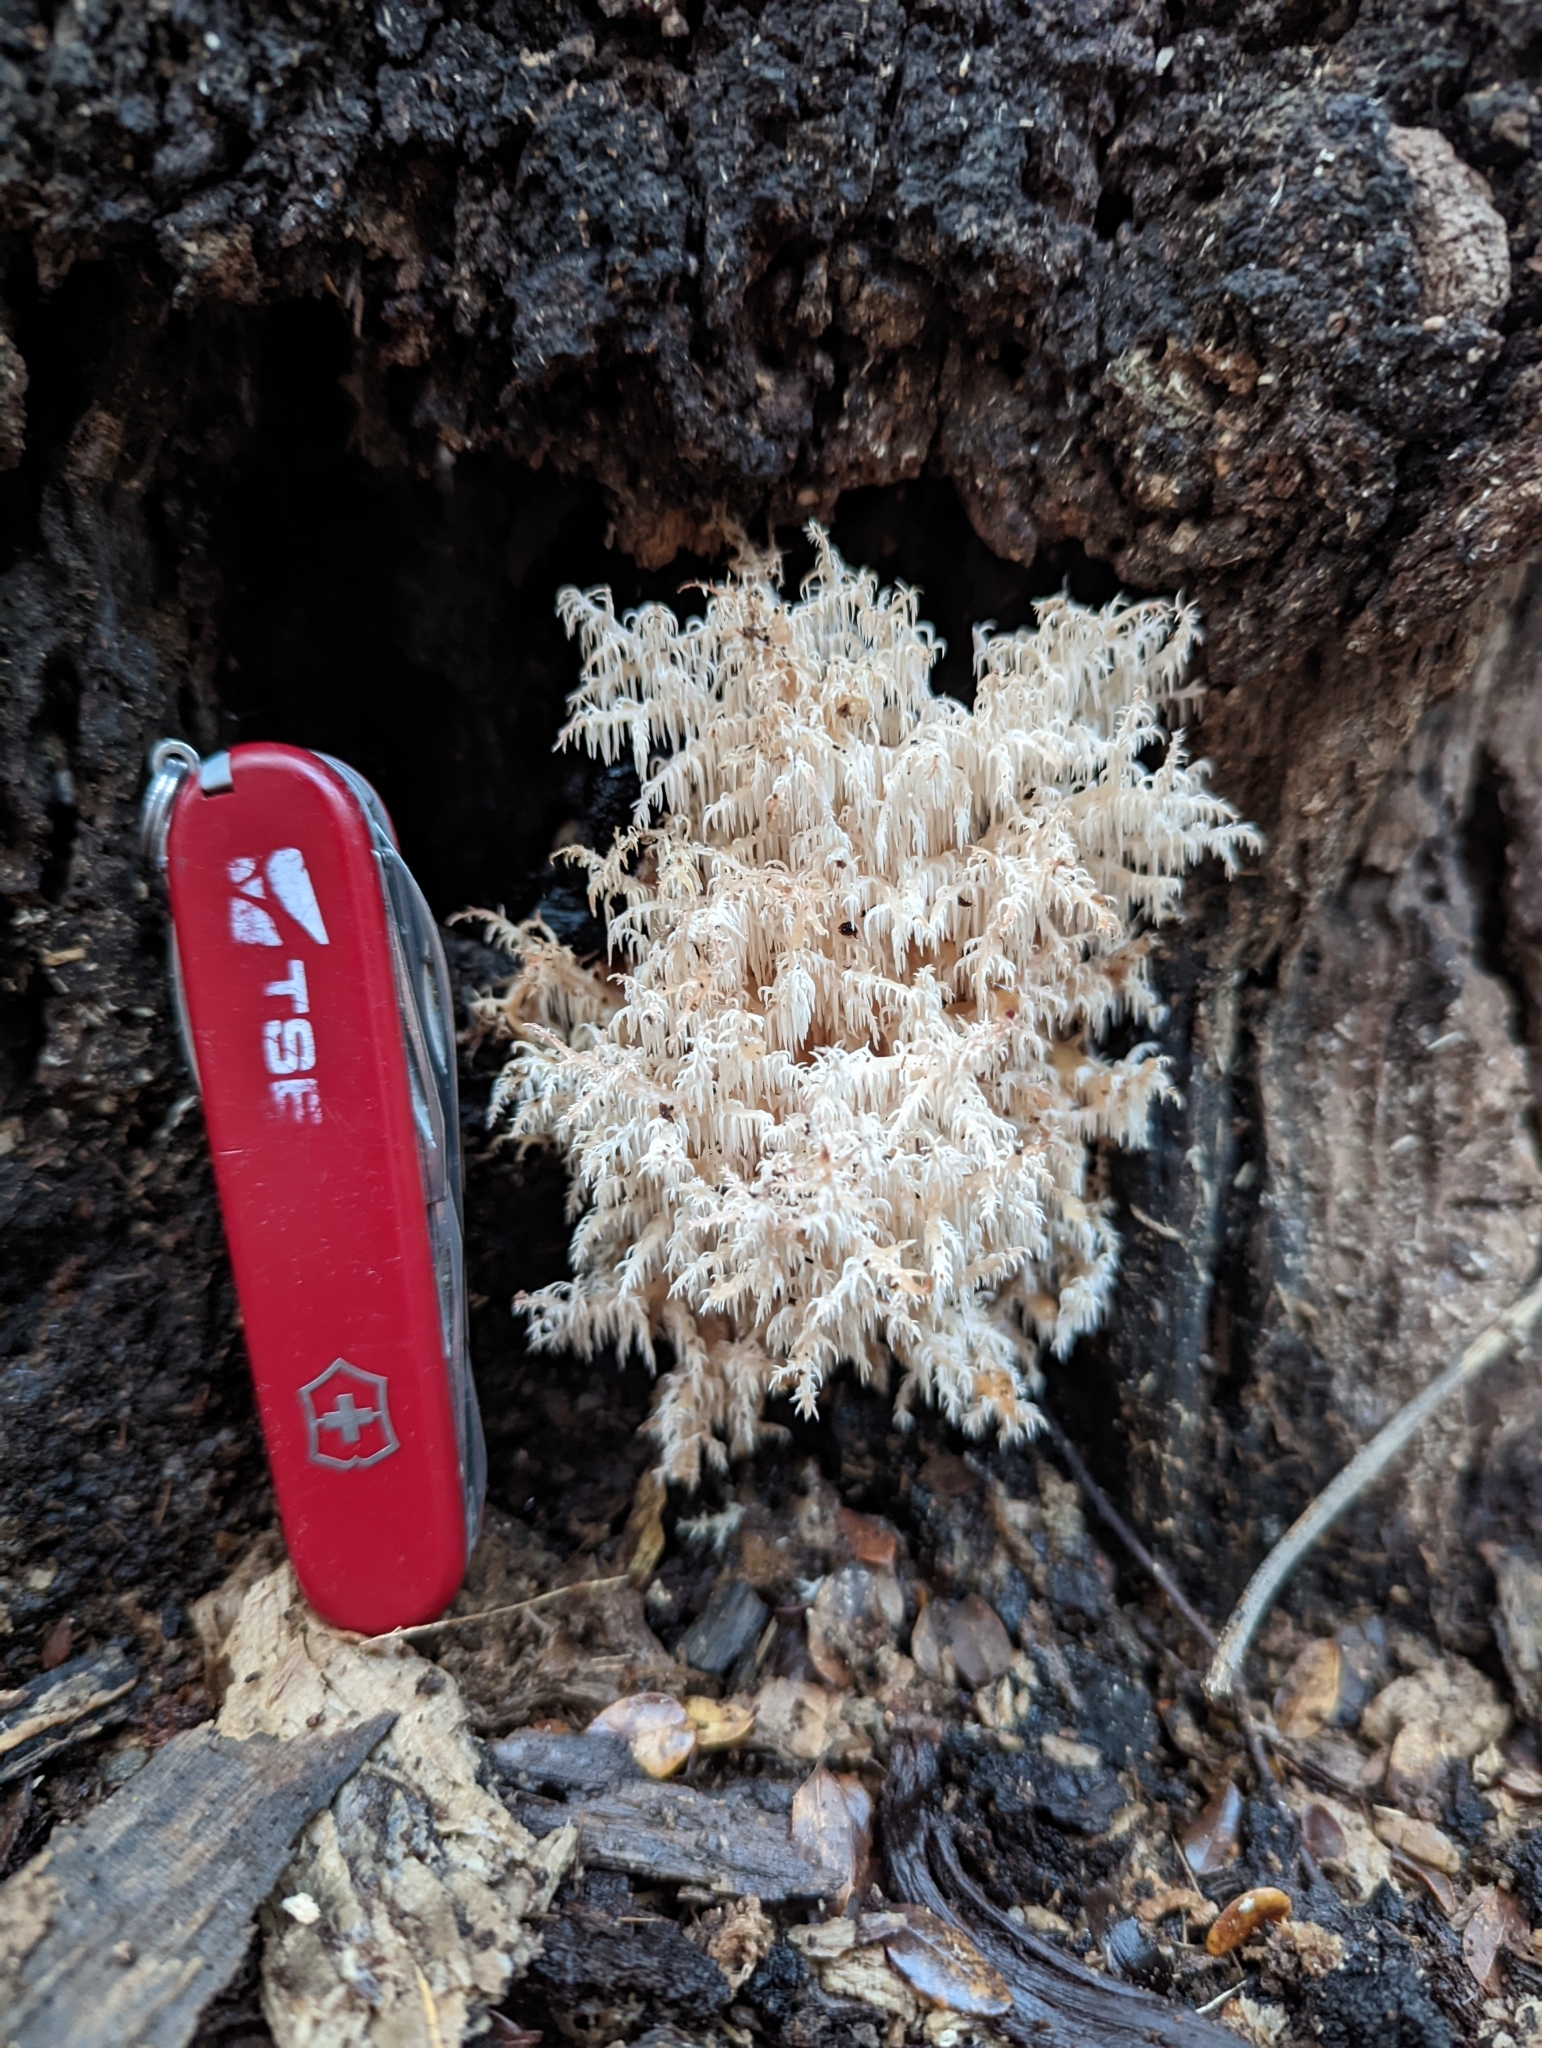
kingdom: Fungi
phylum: Basidiomycota
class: Agaricomycetes
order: Russulales
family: Hericiaceae
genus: Hericium
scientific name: Hericium novae-zealandiae
